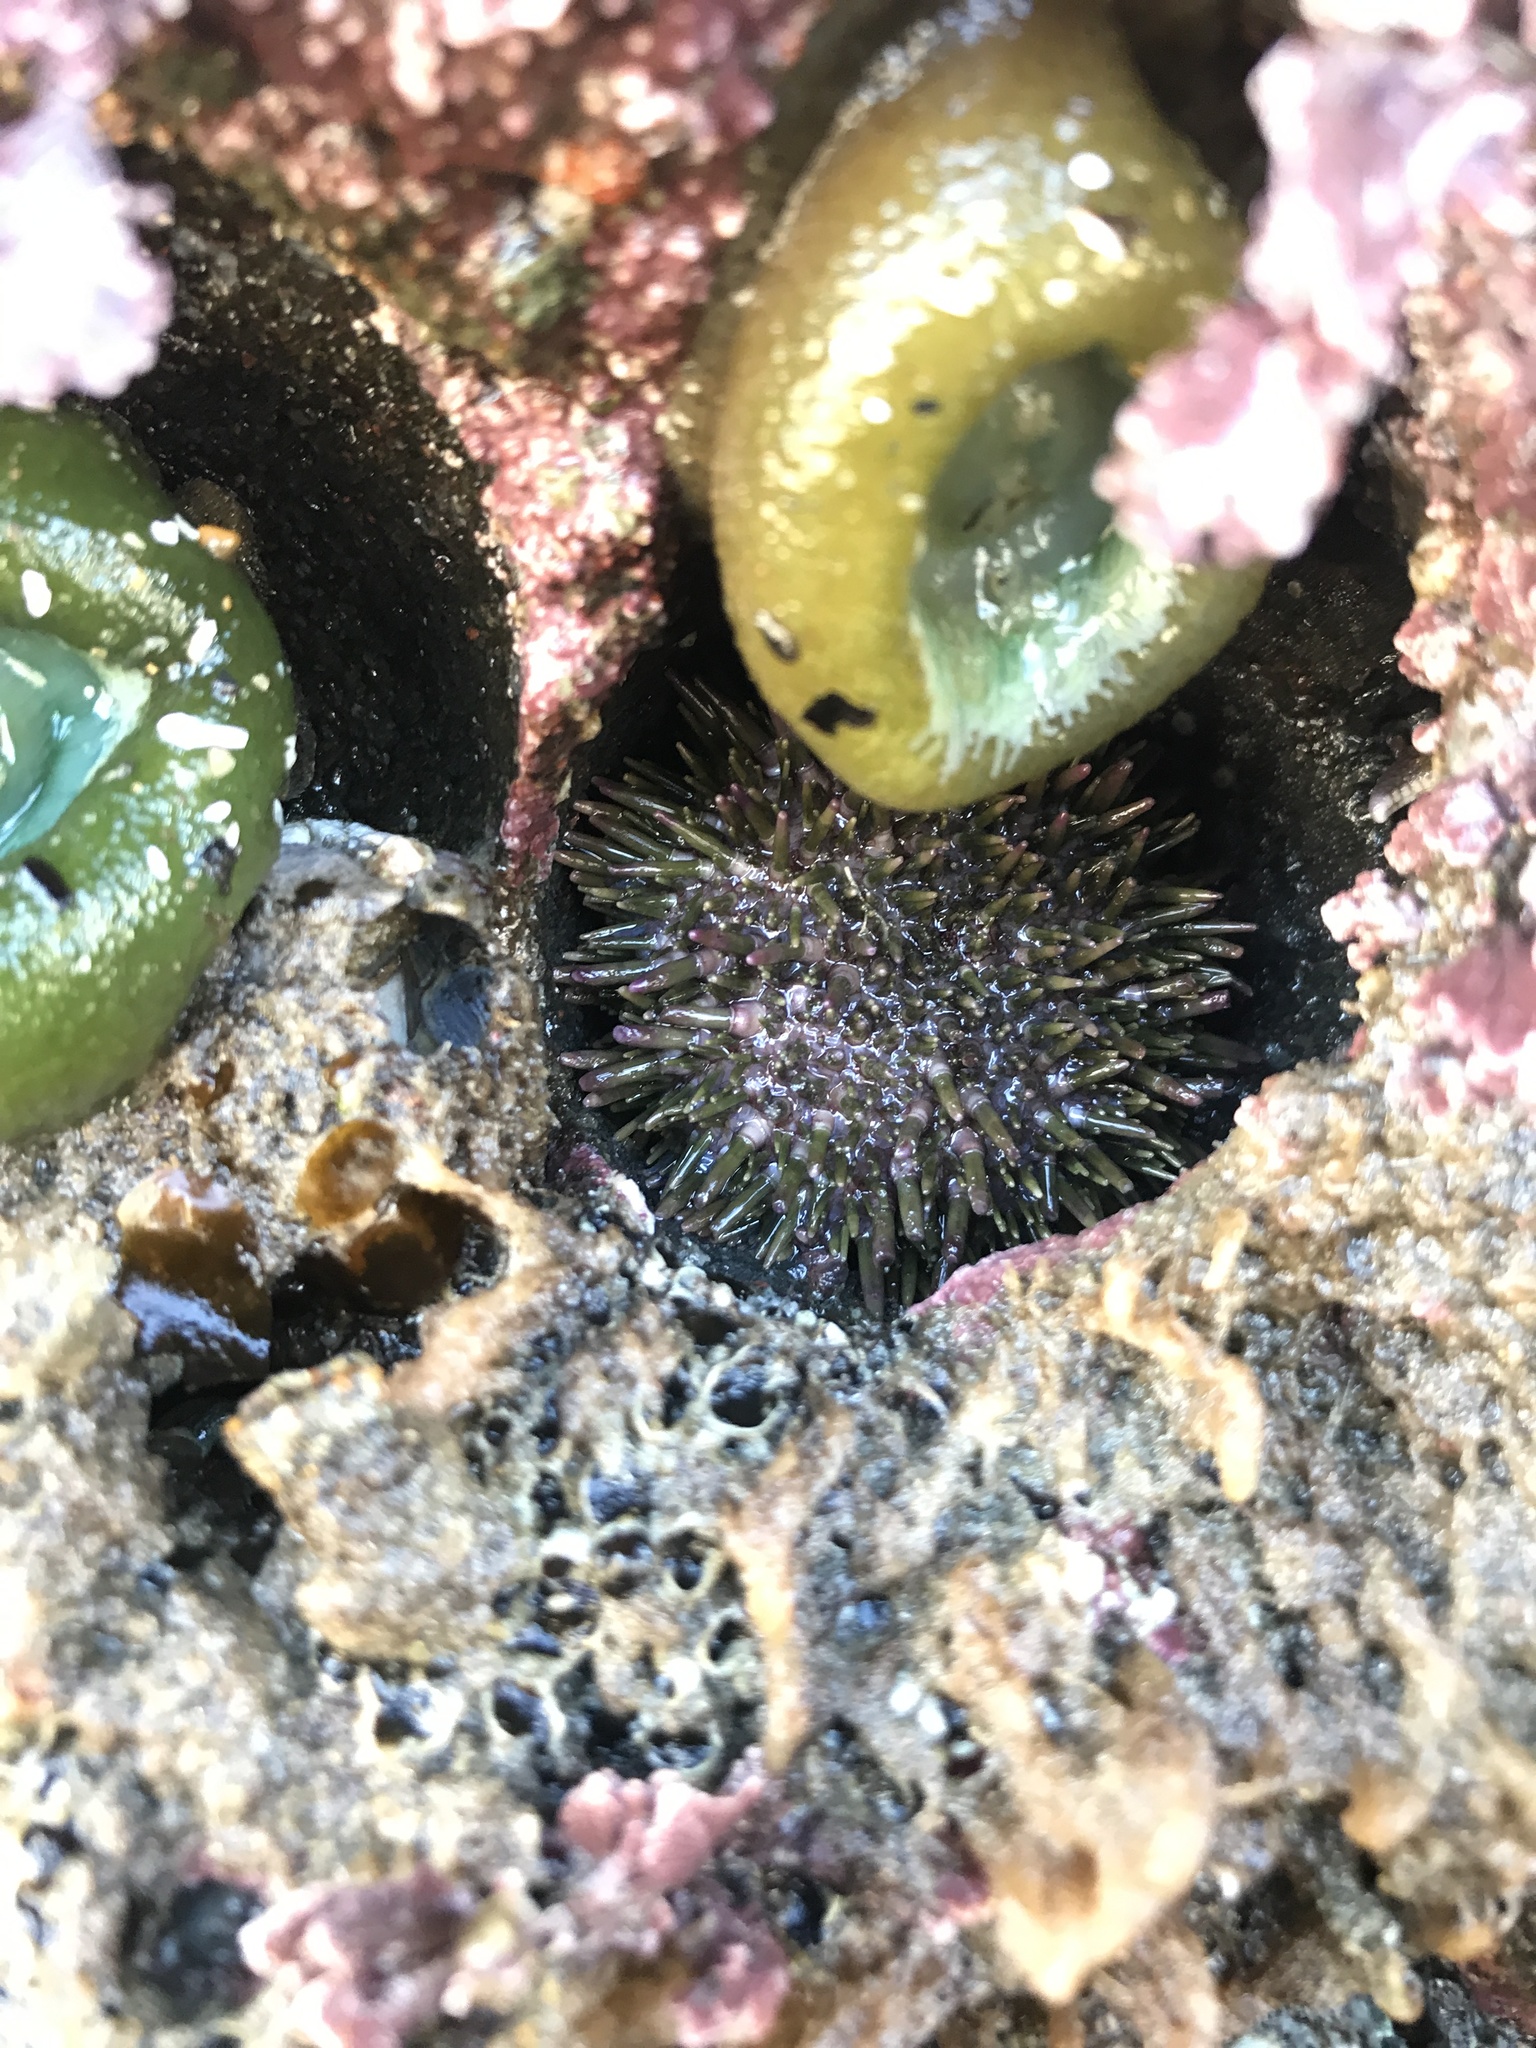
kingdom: Animalia
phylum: Echinodermata
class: Echinoidea
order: Camarodonta
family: Strongylocentrotidae
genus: Strongylocentrotus
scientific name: Strongylocentrotus purpuratus
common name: Purple sea urchin
